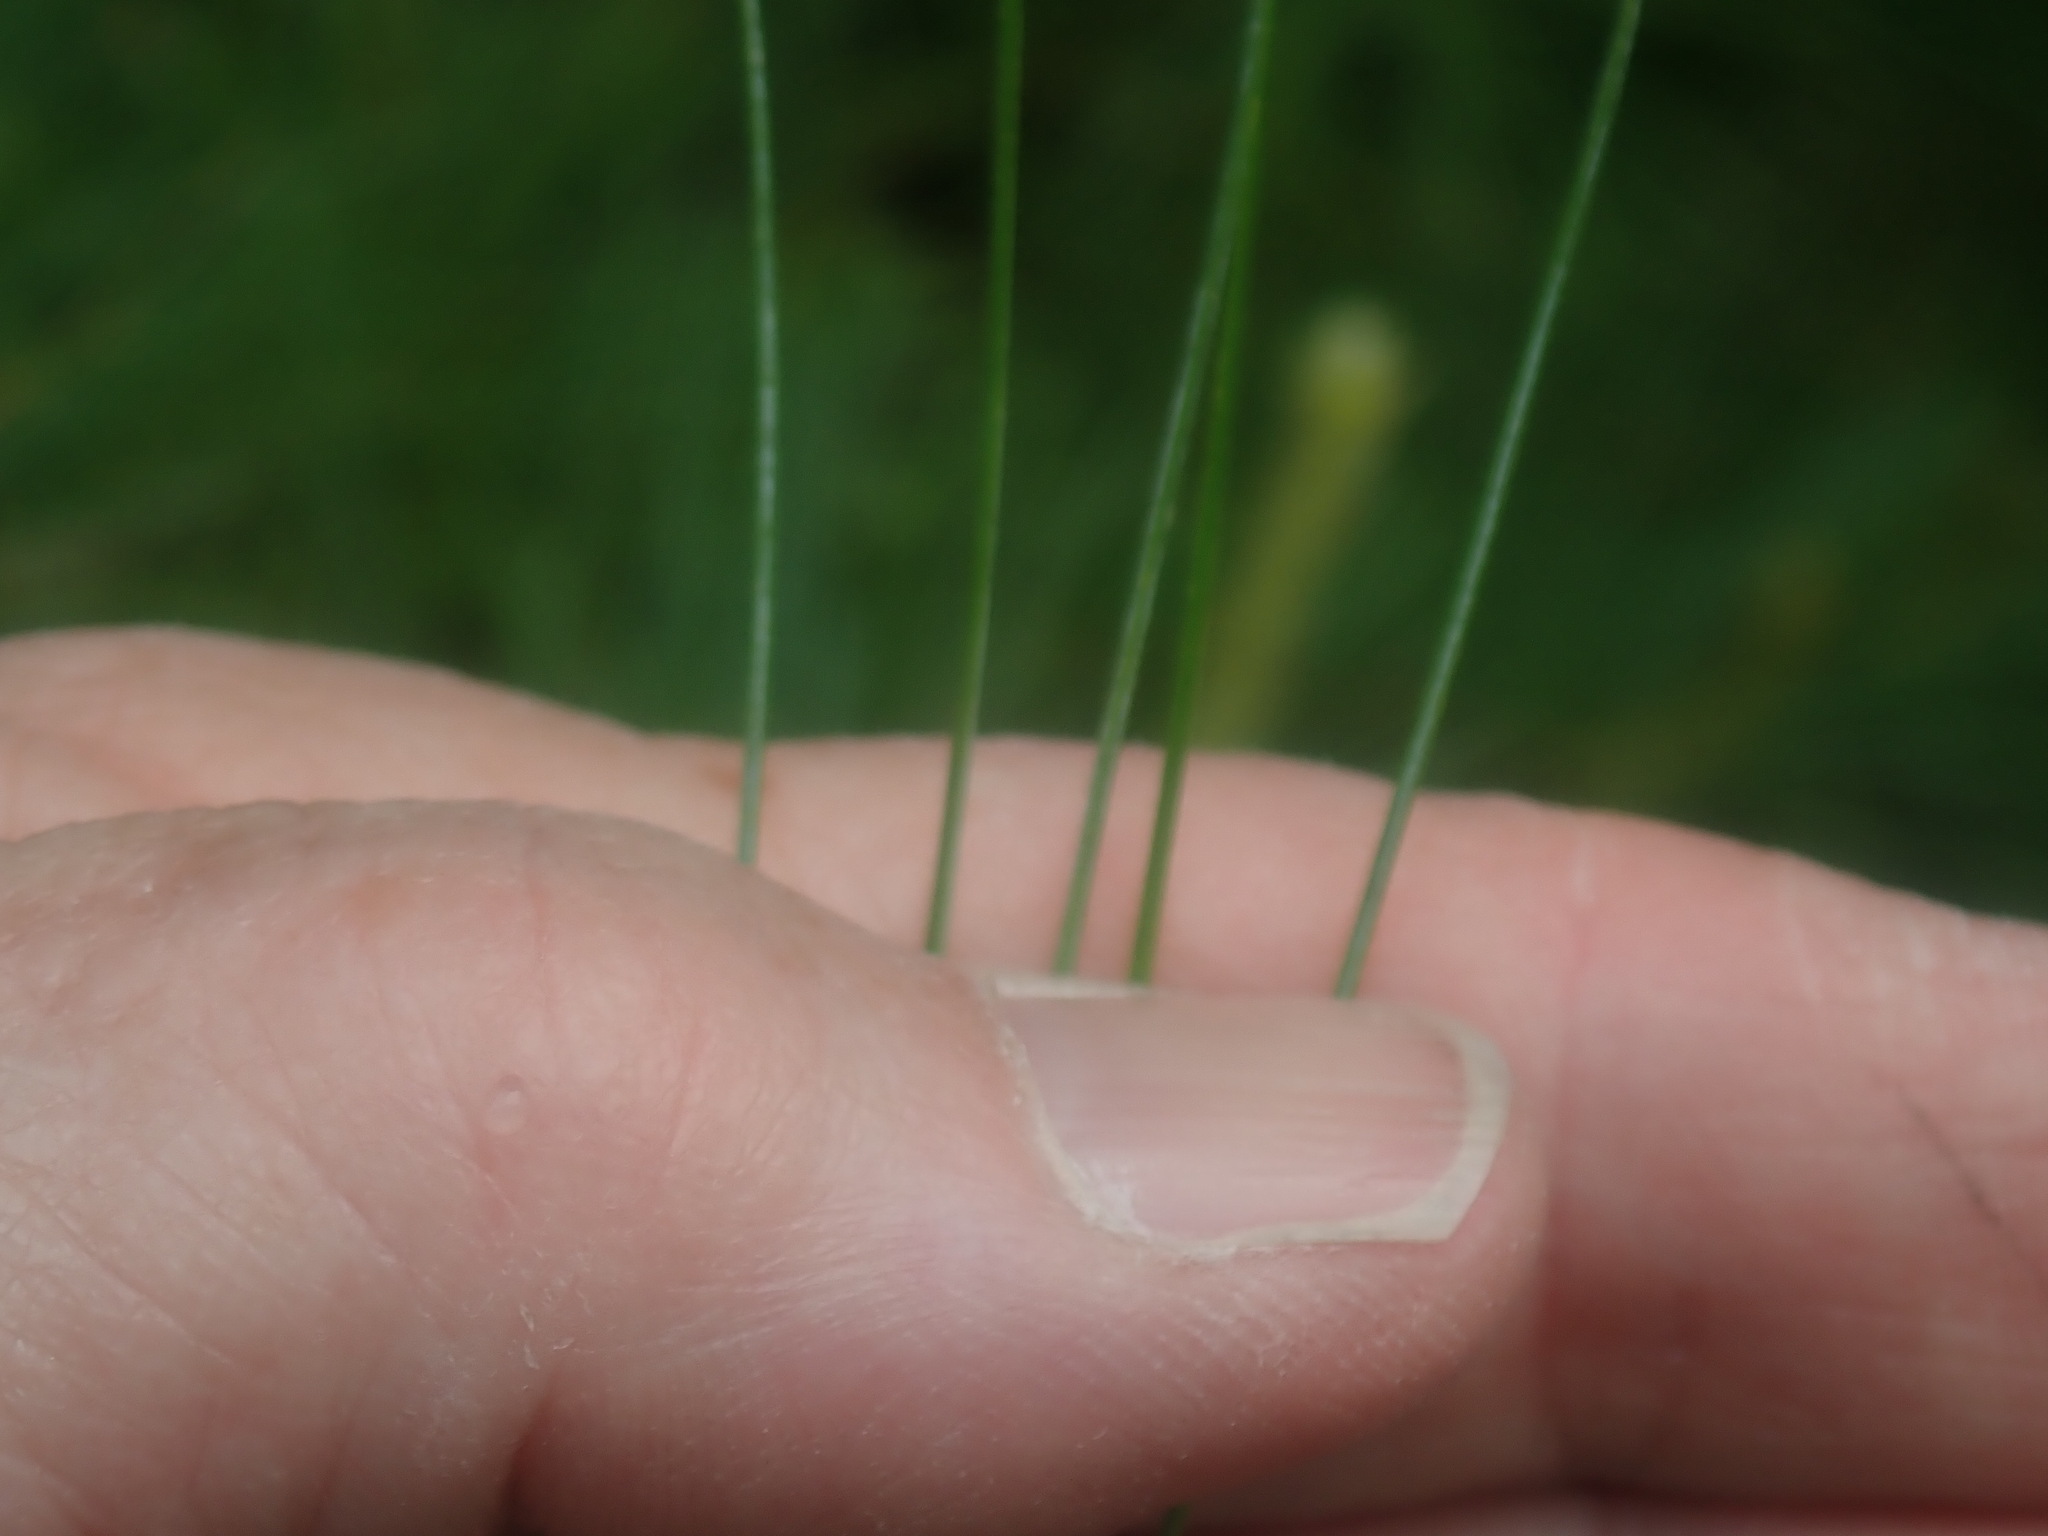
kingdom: Plantae
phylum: Tracheophyta
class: Pinopsida
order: Pinales
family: Pinaceae
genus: Pinus
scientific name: Pinus strobus
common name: Weymouth pine
